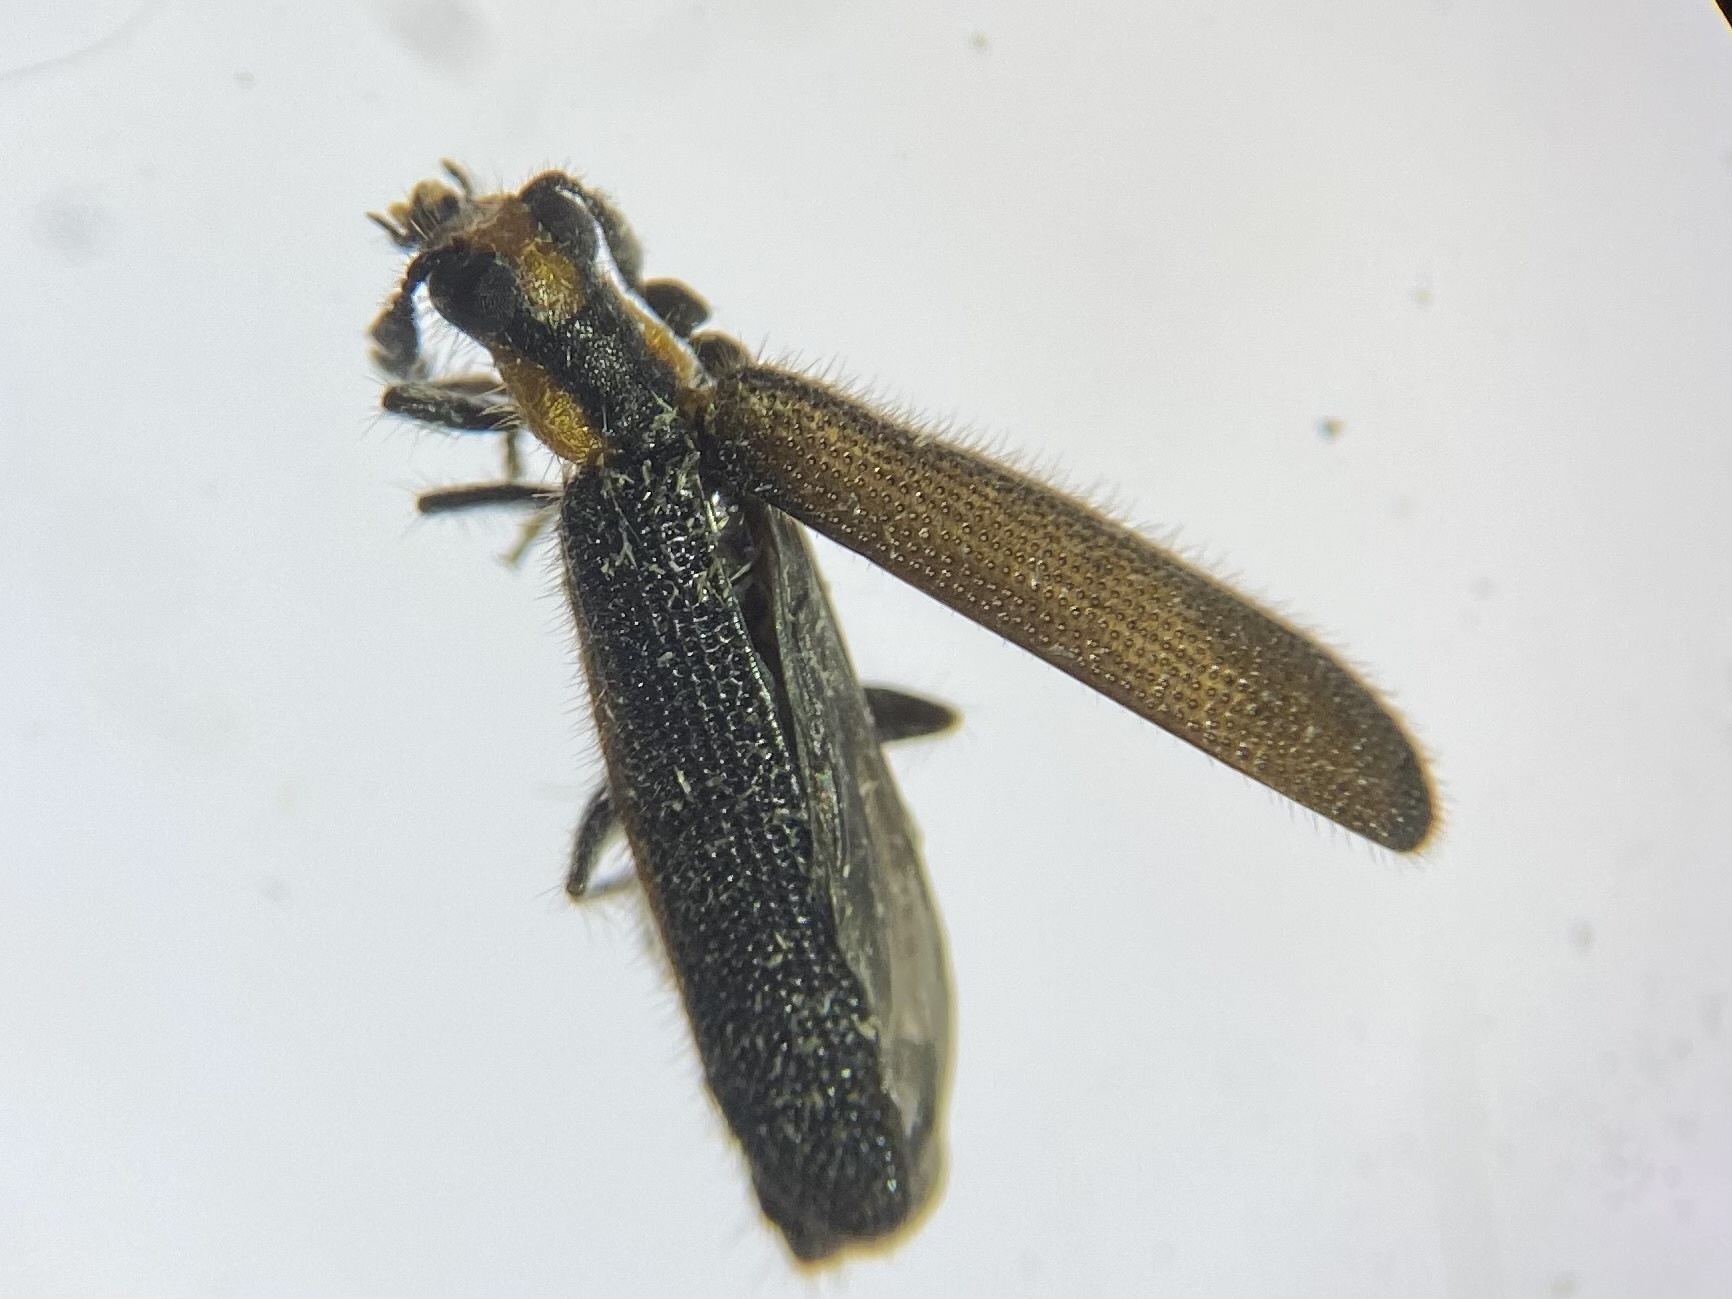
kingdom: Animalia
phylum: Arthropoda
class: Insecta
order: Coleoptera
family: Cleridae
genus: Pyticeroides
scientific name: Pyticeroides laticornis
